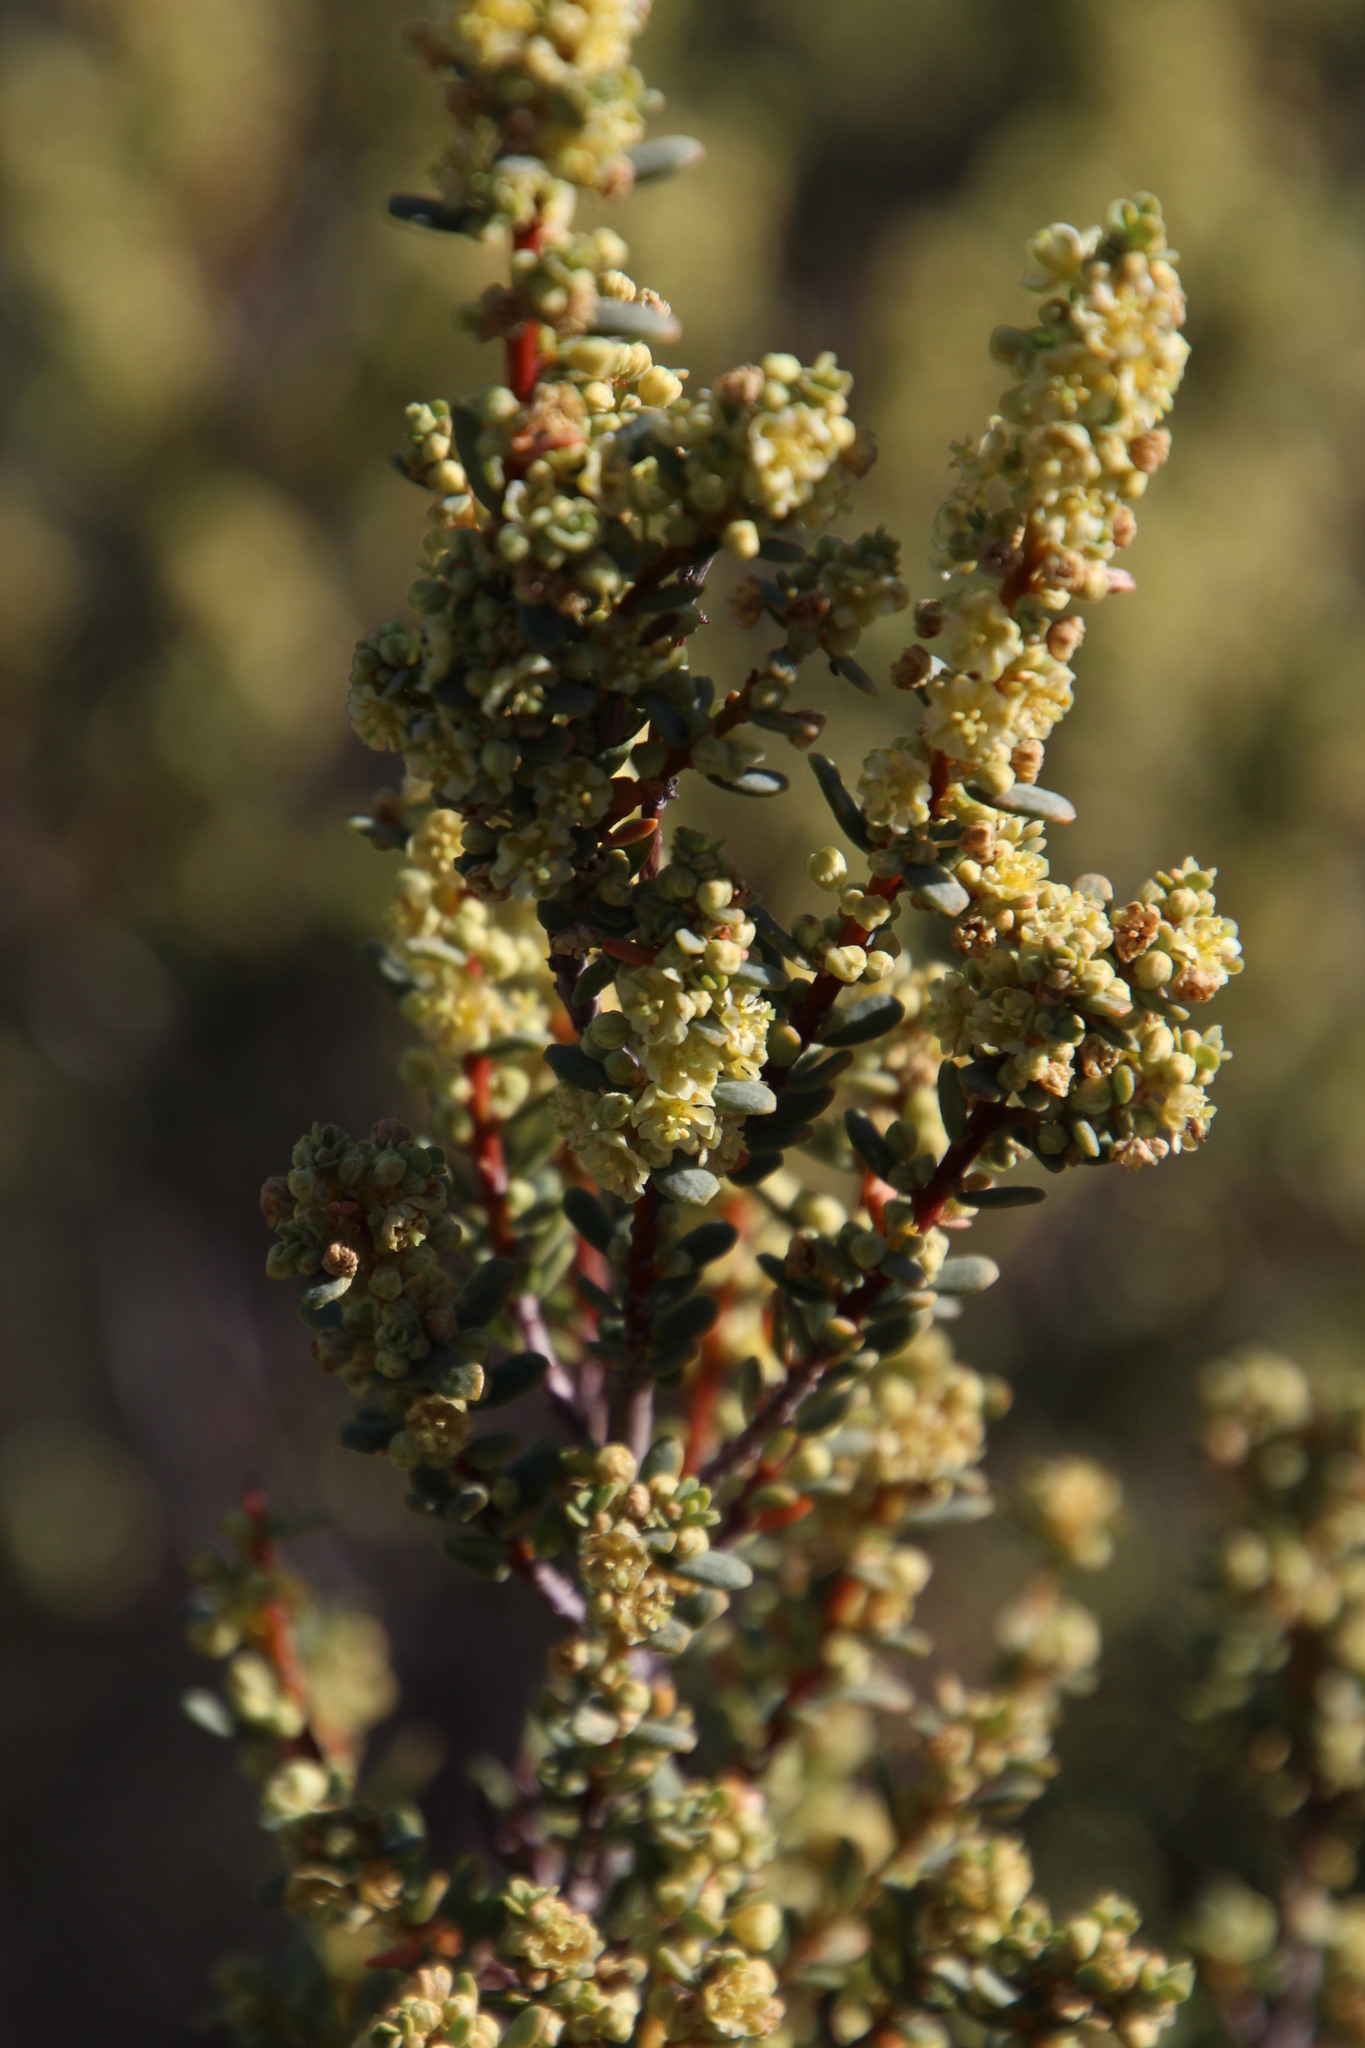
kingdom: Plantae
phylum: Tracheophyta
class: Magnoliopsida
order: Malpighiales
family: Peraceae
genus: Clutia
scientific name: Clutia alaternoides
